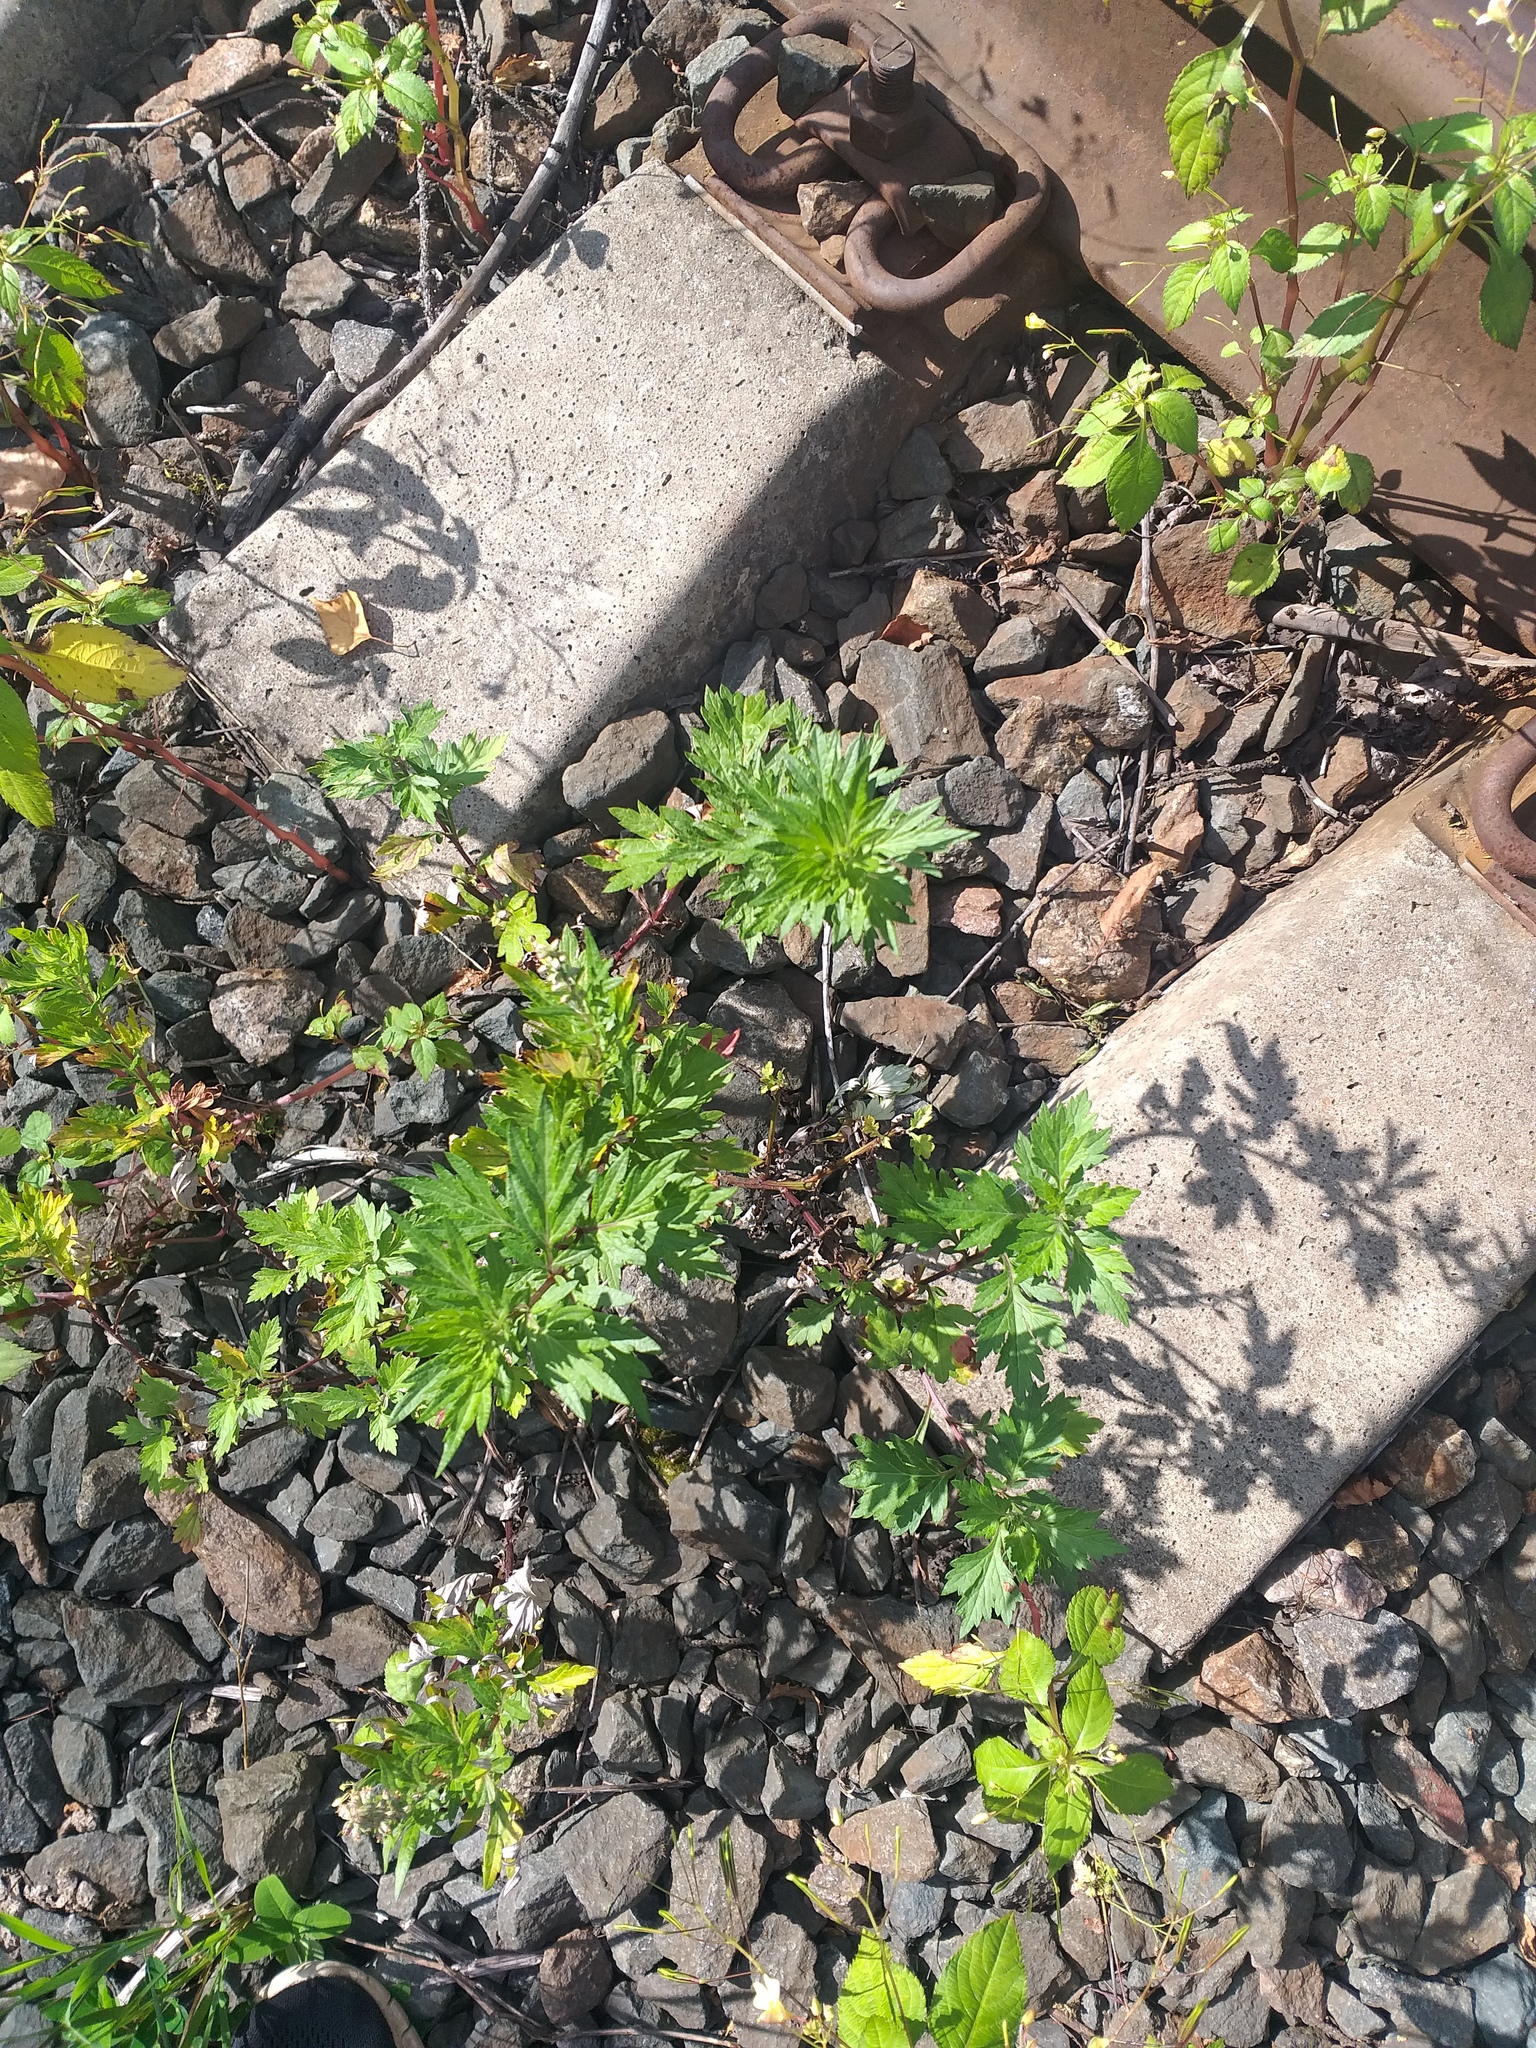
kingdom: Plantae
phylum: Tracheophyta
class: Magnoliopsida
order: Asterales
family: Asteraceae
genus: Artemisia
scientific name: Artemisia vulgaris
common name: Mugwort
